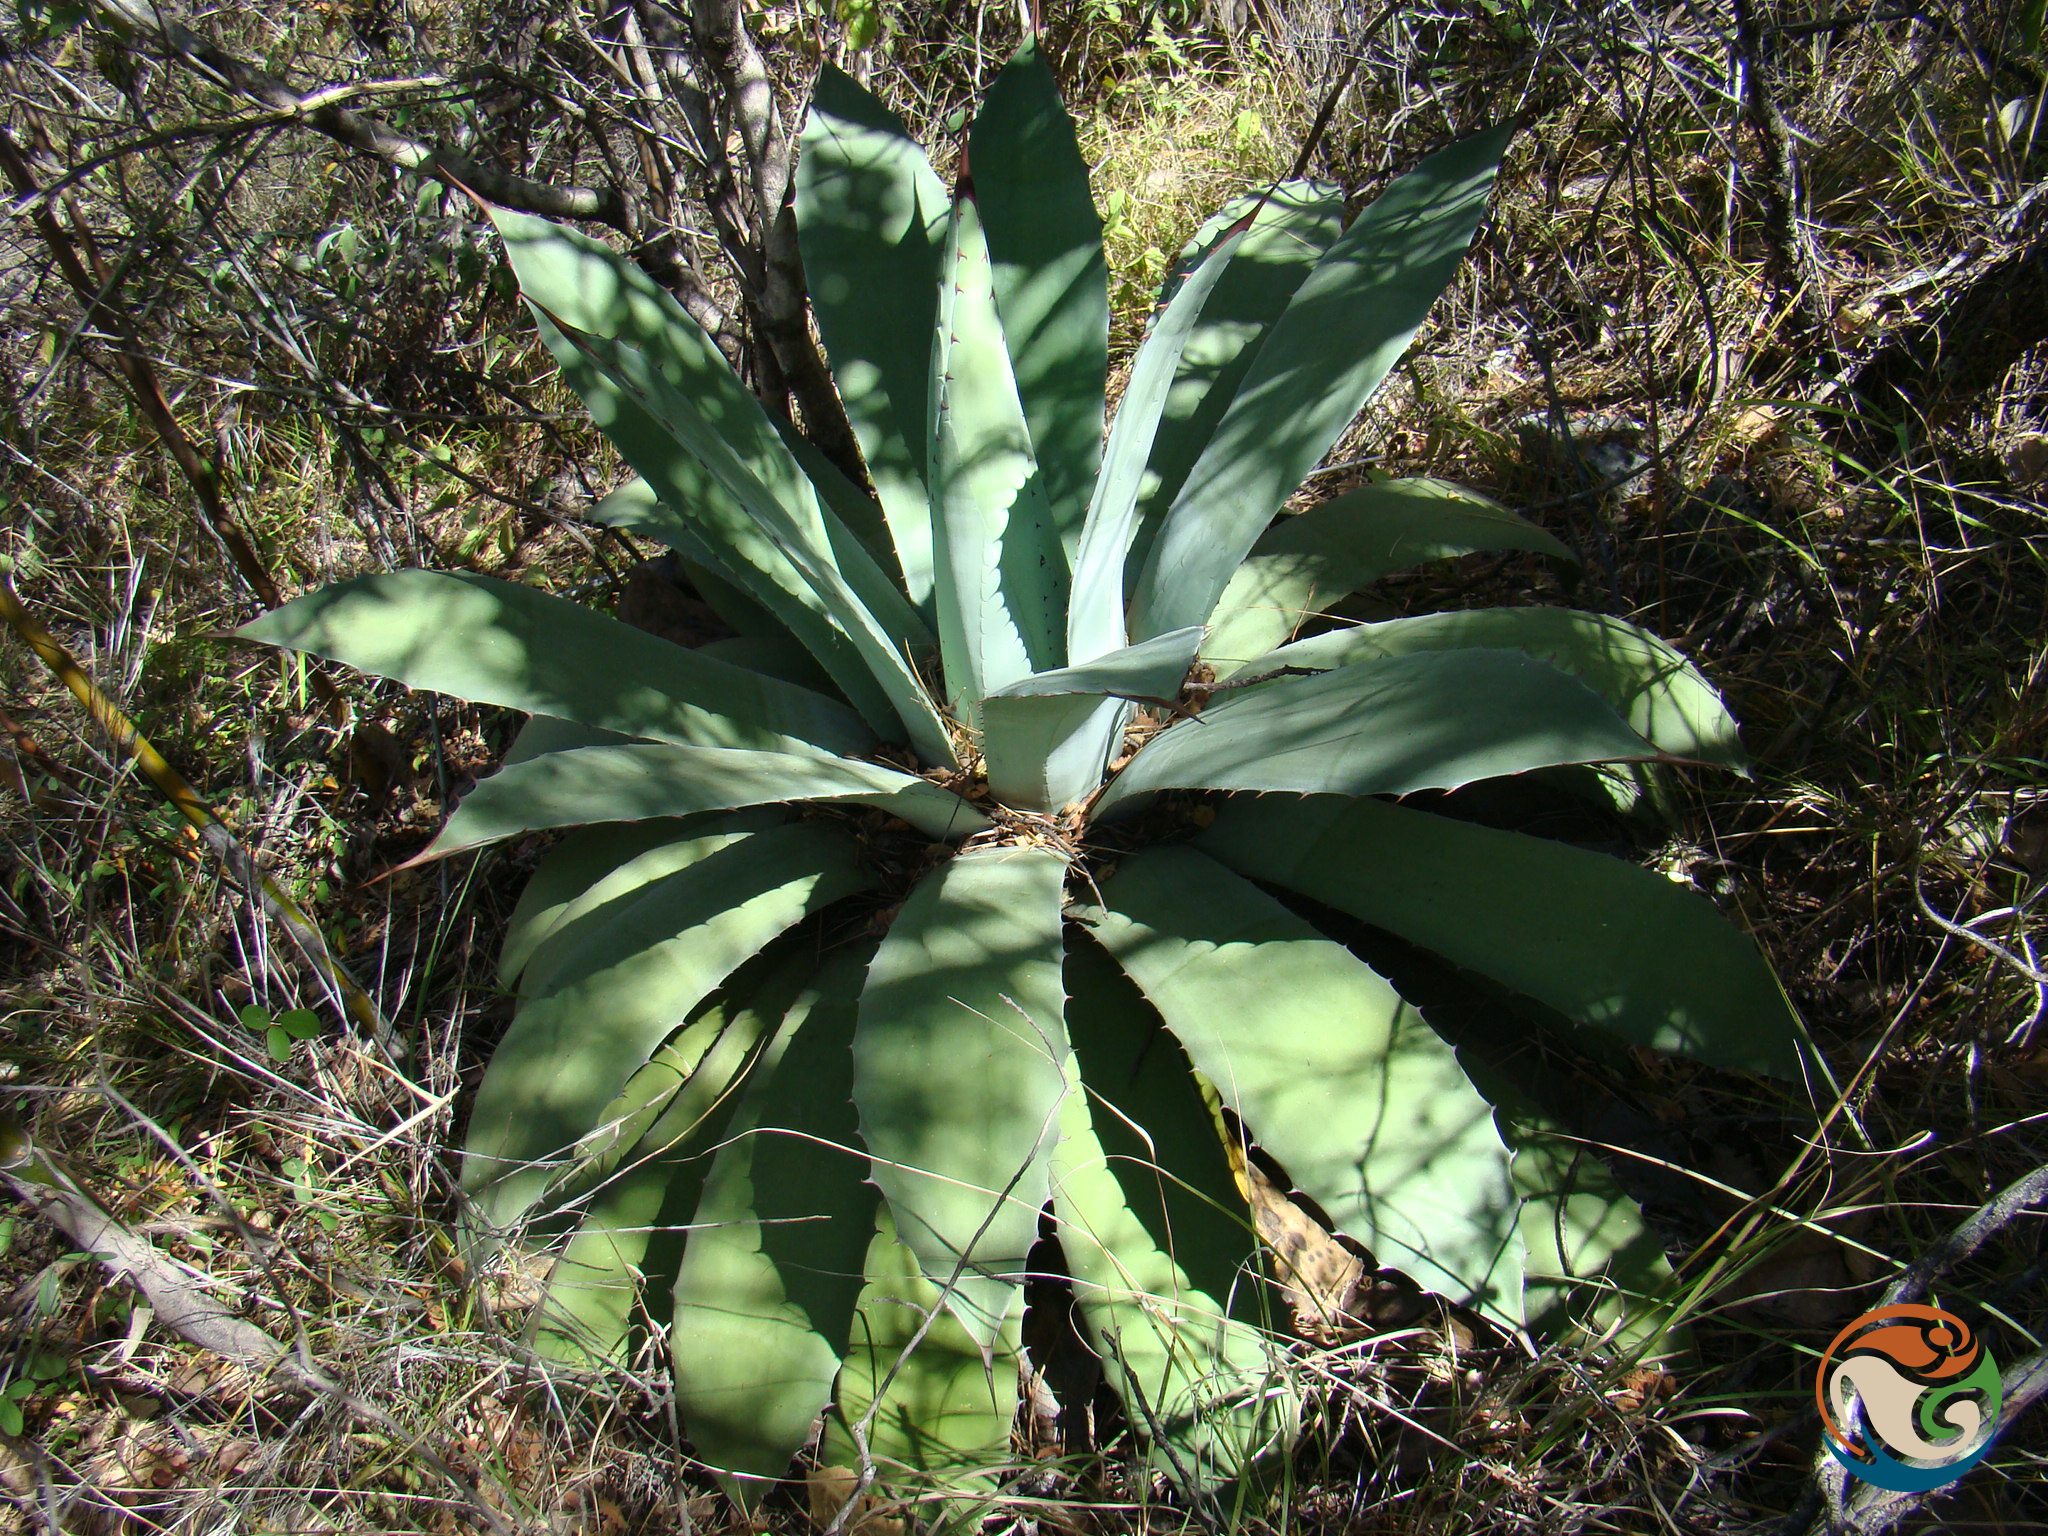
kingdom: Plantae
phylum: Tracheophyta
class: Liliopsida
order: Asparagales
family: Asparagaceae
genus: Agave
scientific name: Agave seemanniana
